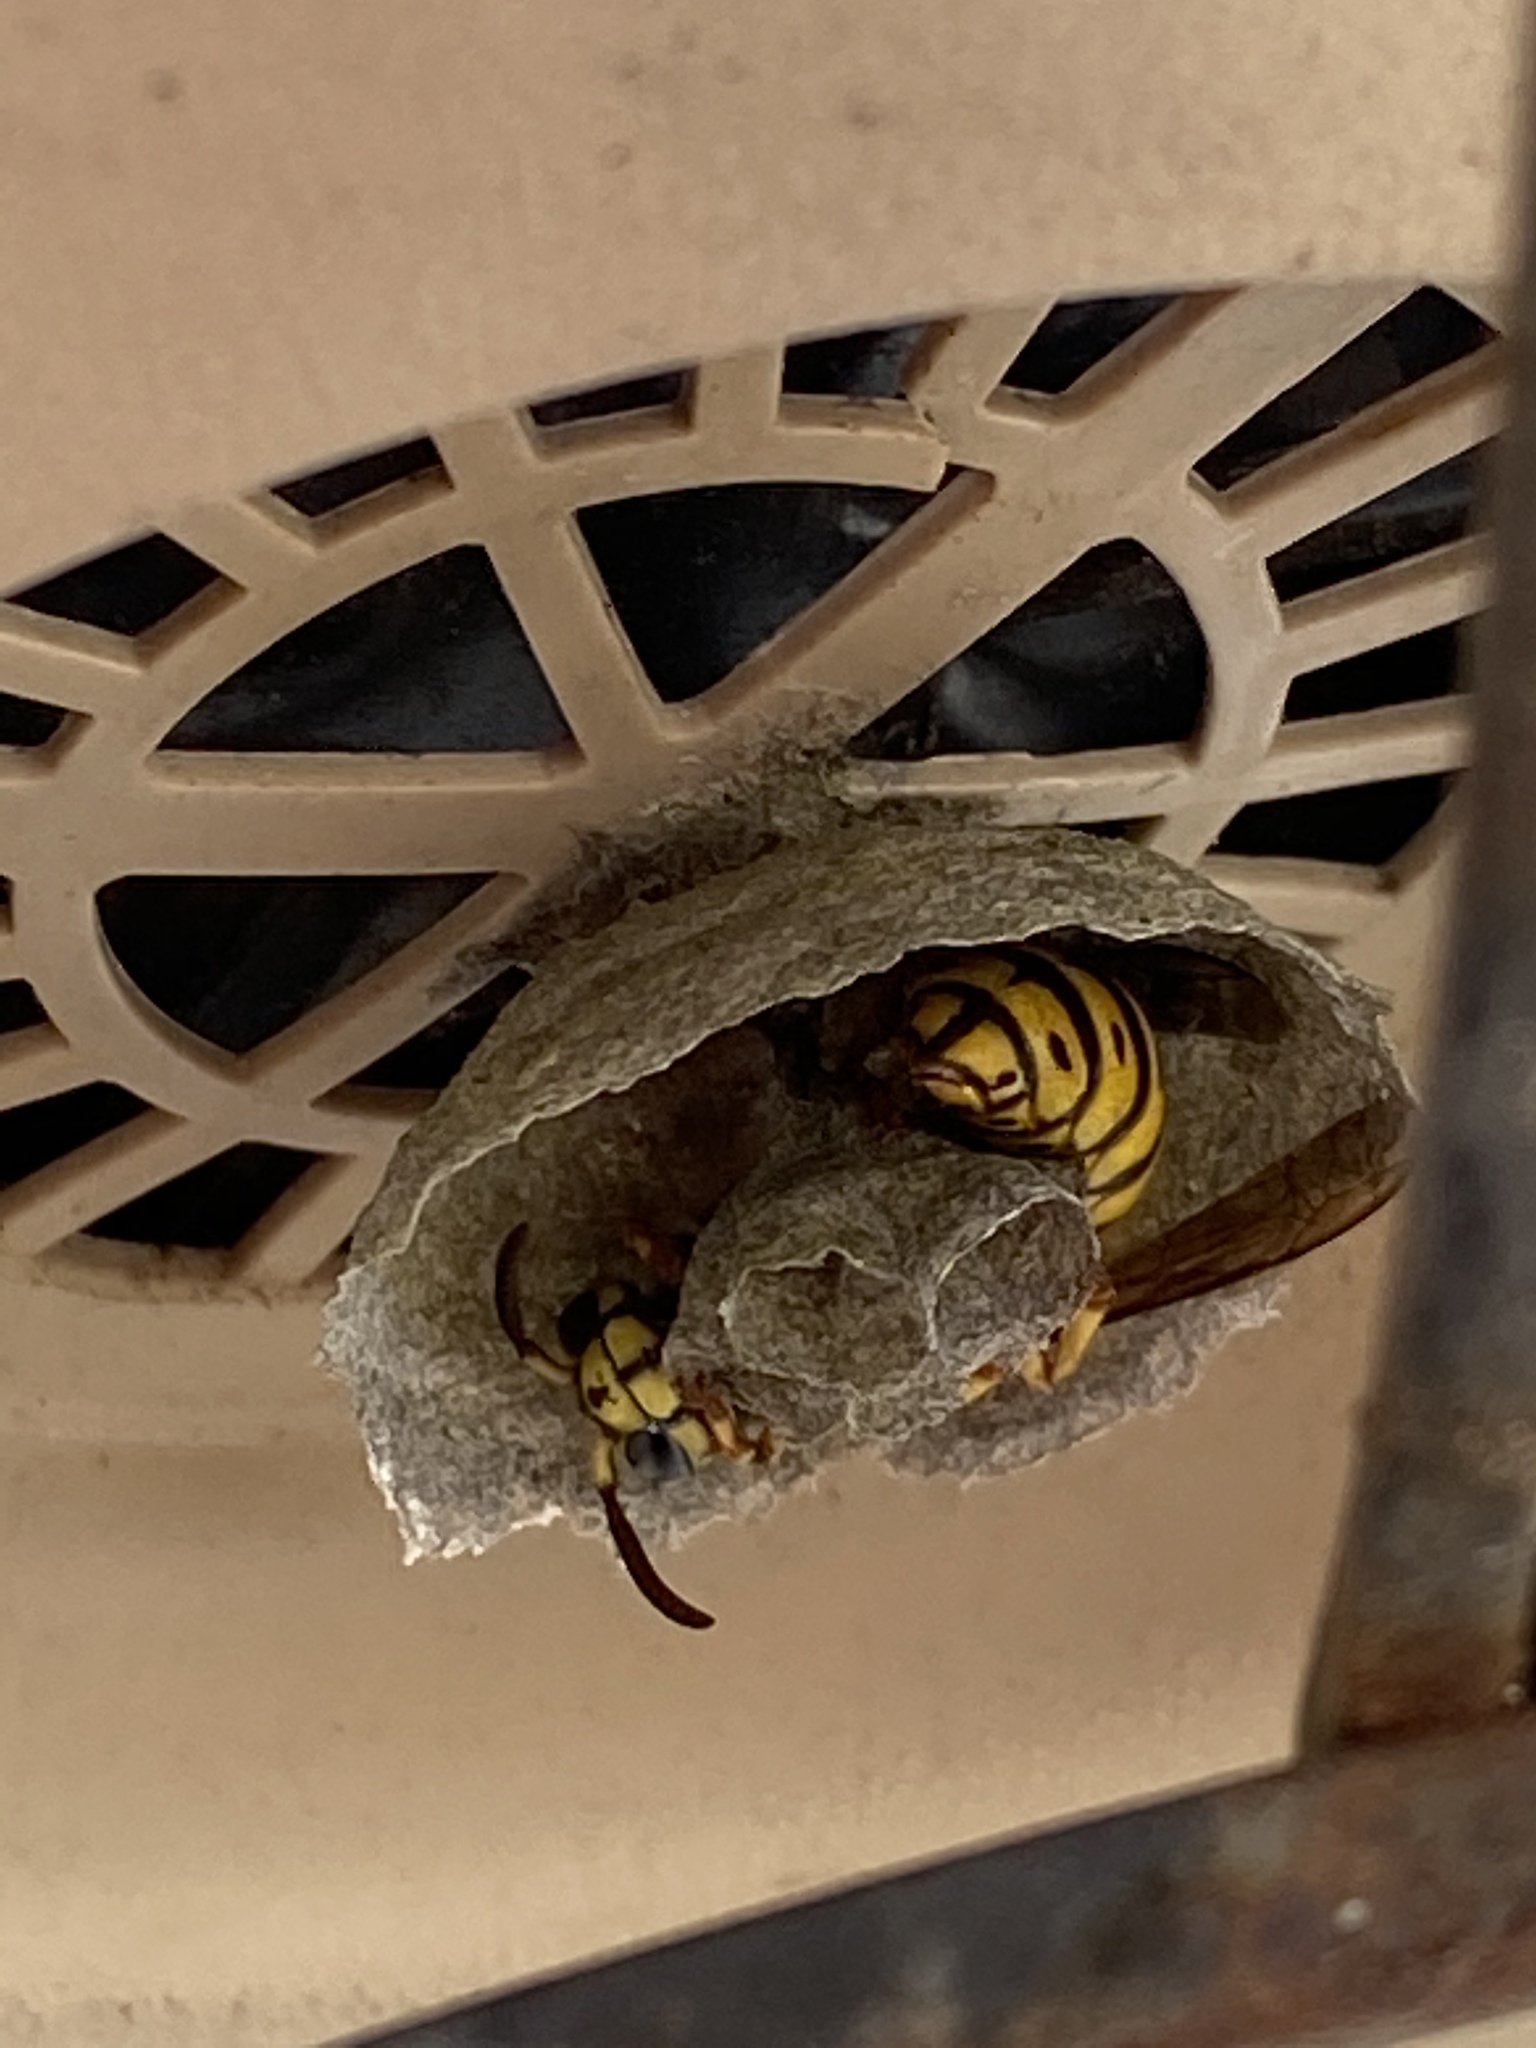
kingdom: Animalia
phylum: Arthropoda
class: Insecta
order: Hymenoptera
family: Vespidae
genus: Dolichovespula
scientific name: Dolichovespula arenaria
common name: Aerial yellowjacket
